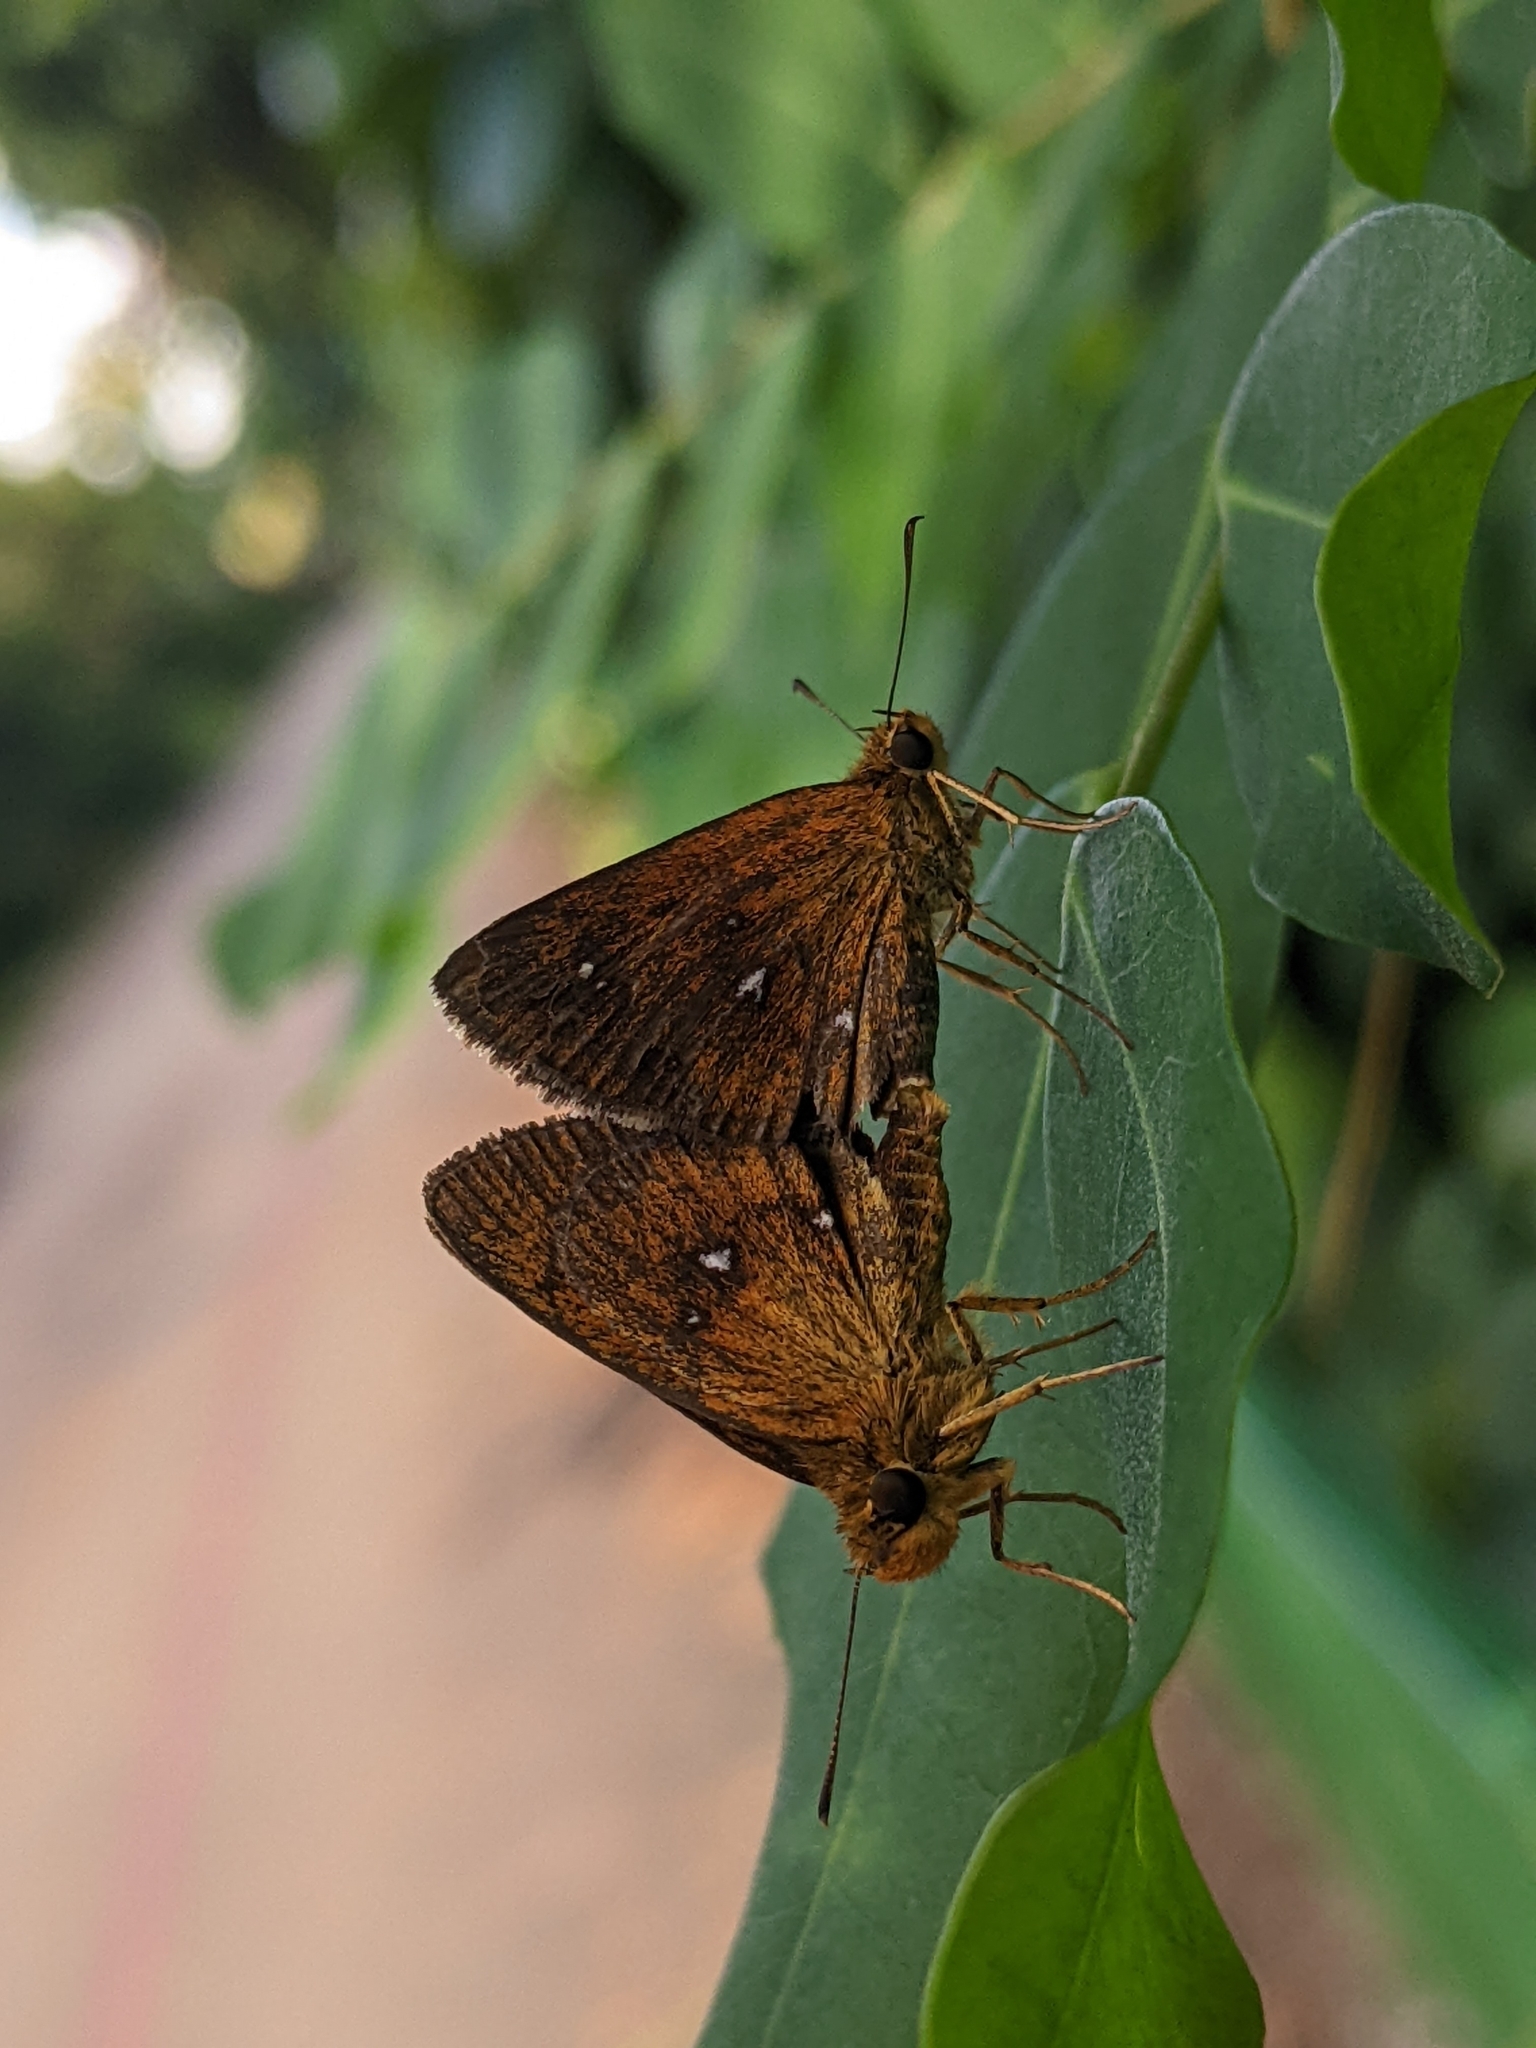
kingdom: Animalia
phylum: Arthropoda
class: Insecta
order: Lepidoptera
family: Hesperiidae
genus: Iambrix
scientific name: Iambrix salsala
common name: Chestnut bob
